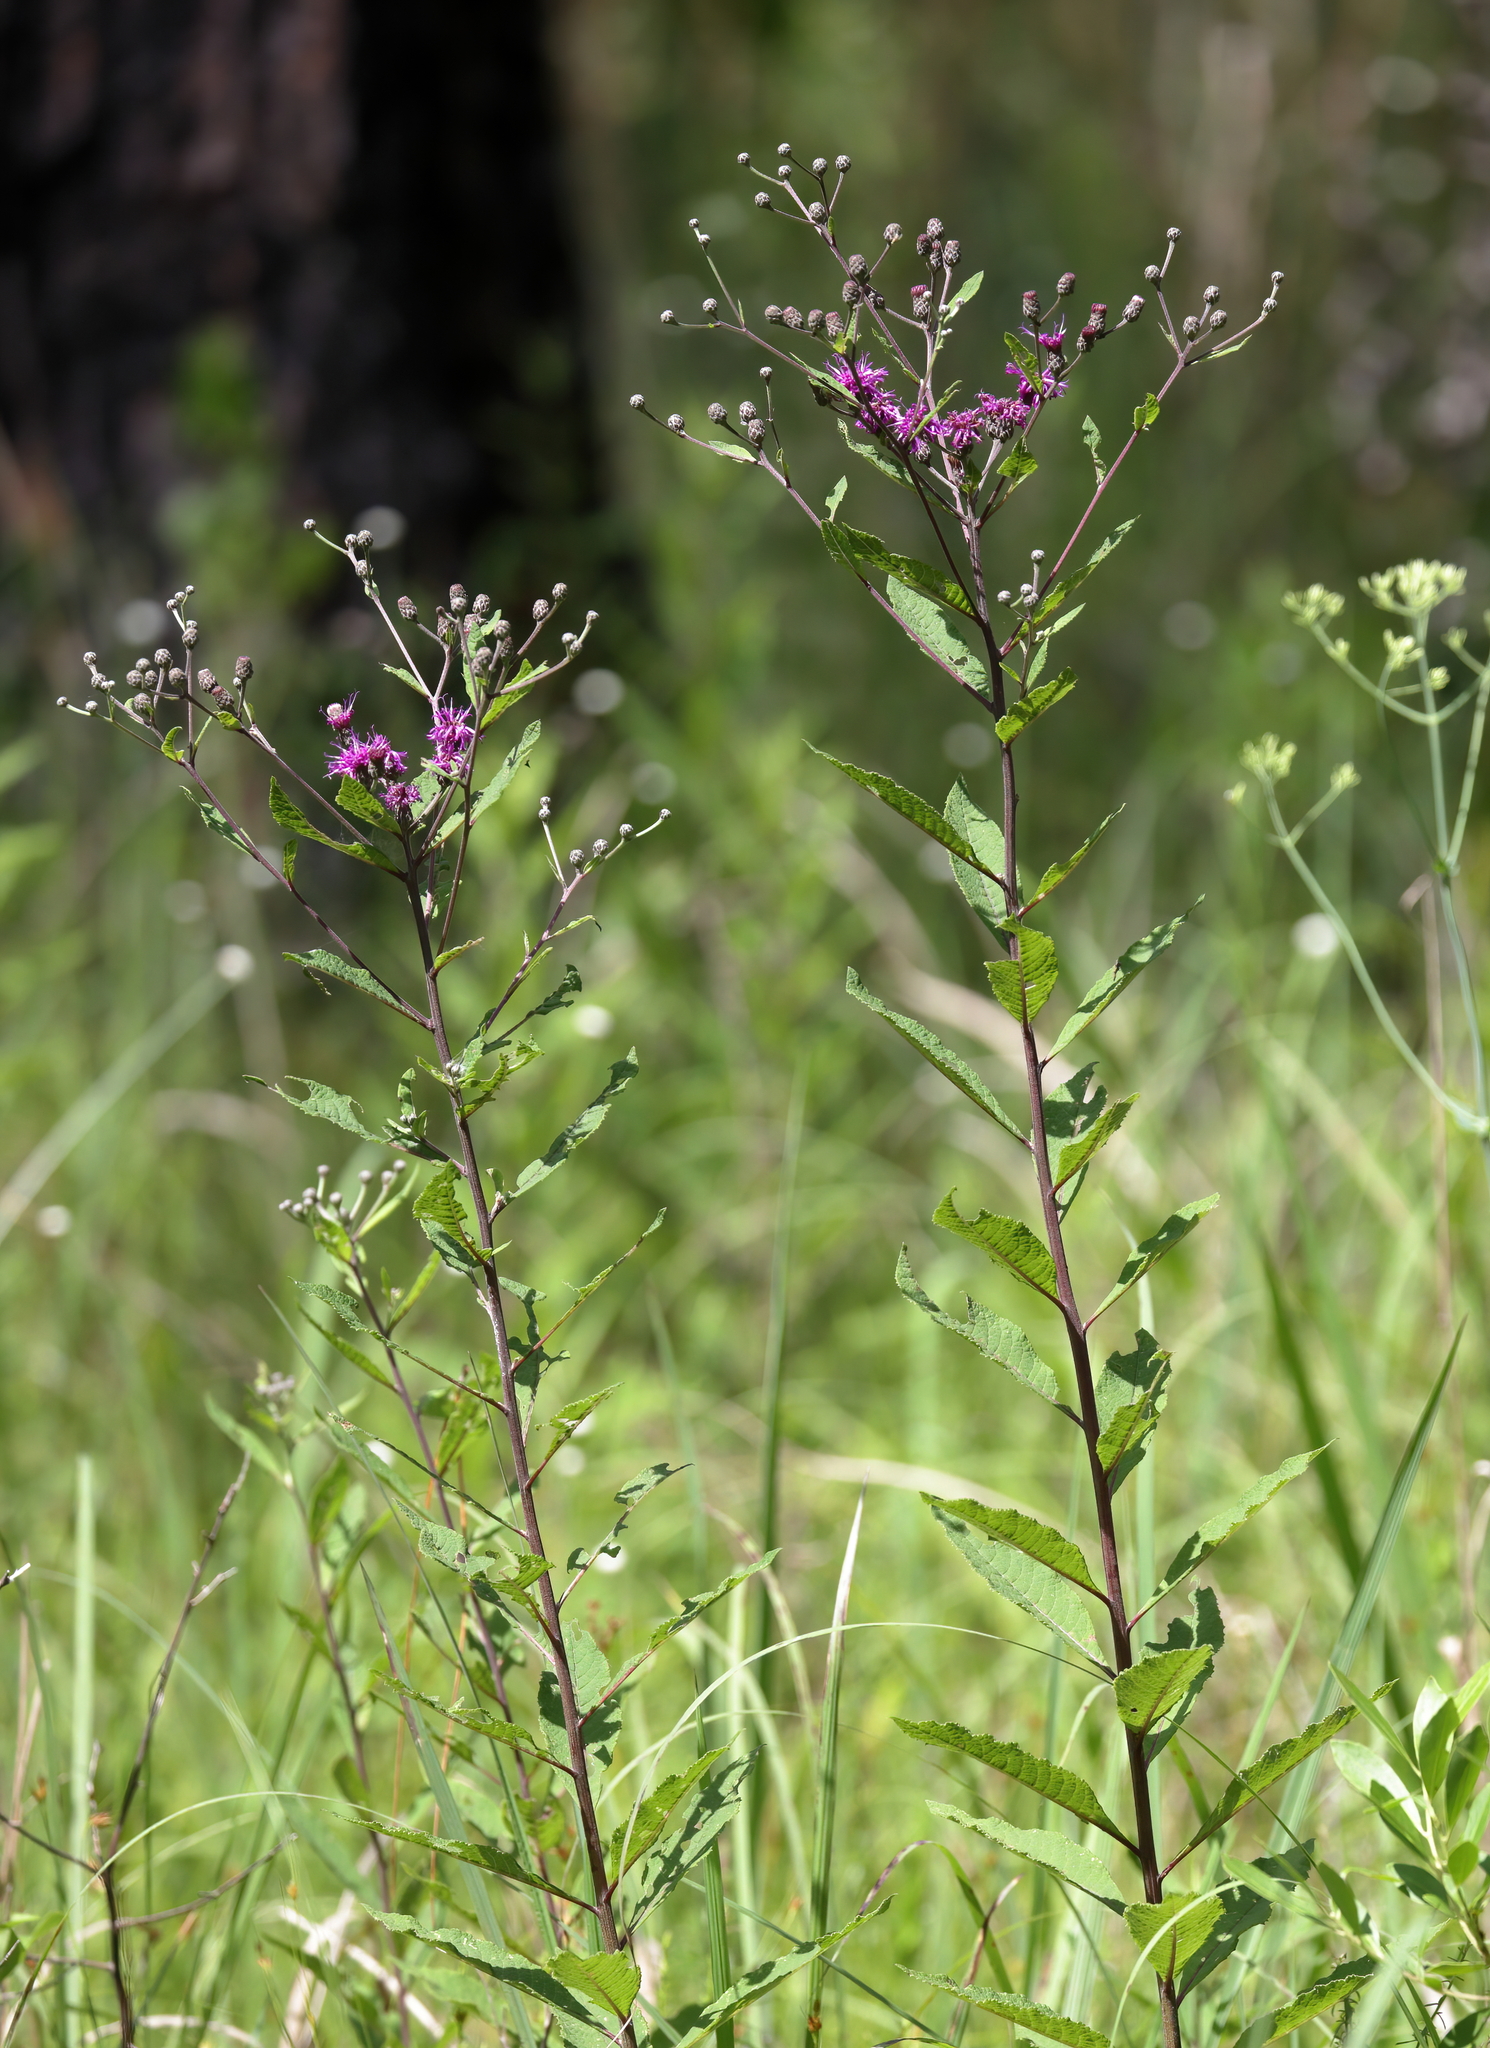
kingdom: Plantae
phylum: Tracheophyta
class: Magnoliopsida
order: Asterales
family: Asteraceae
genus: Vernonia
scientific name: Vernonia gigantea
